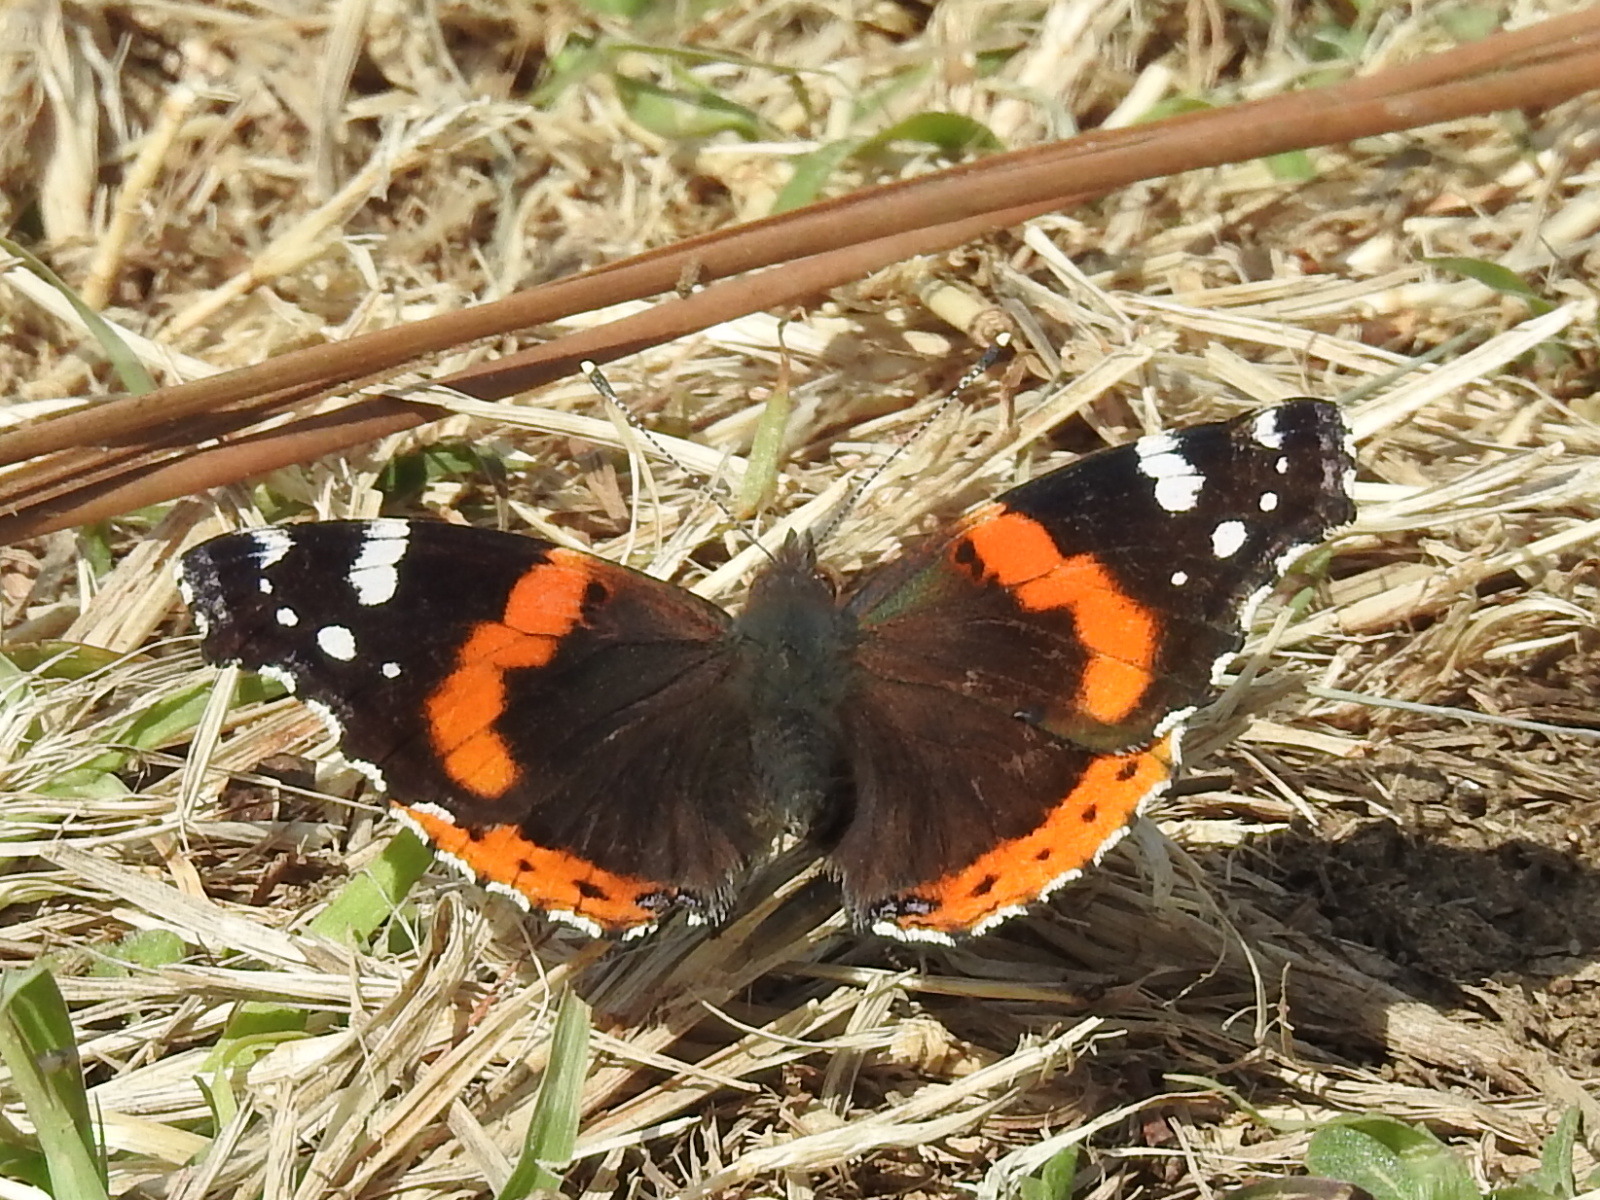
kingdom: Animalia
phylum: Arthropoda
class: Insecta
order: Lepidoptera
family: Nymphalidae
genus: Vanessa
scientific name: Vanessa atalanta
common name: Red admiral
